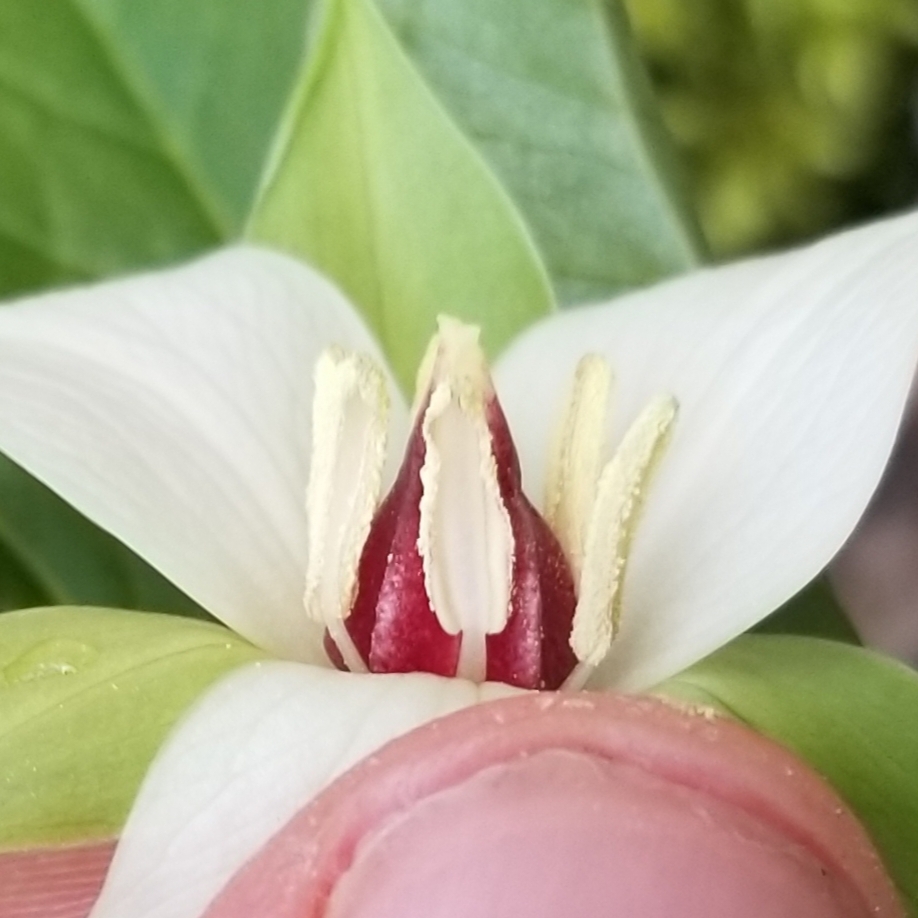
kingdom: Plantae
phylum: Tracheophyta
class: Liliopsida
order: Liliales
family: Melanthiaceae
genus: Trillium
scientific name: Trillium erectum
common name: Purple trillium
